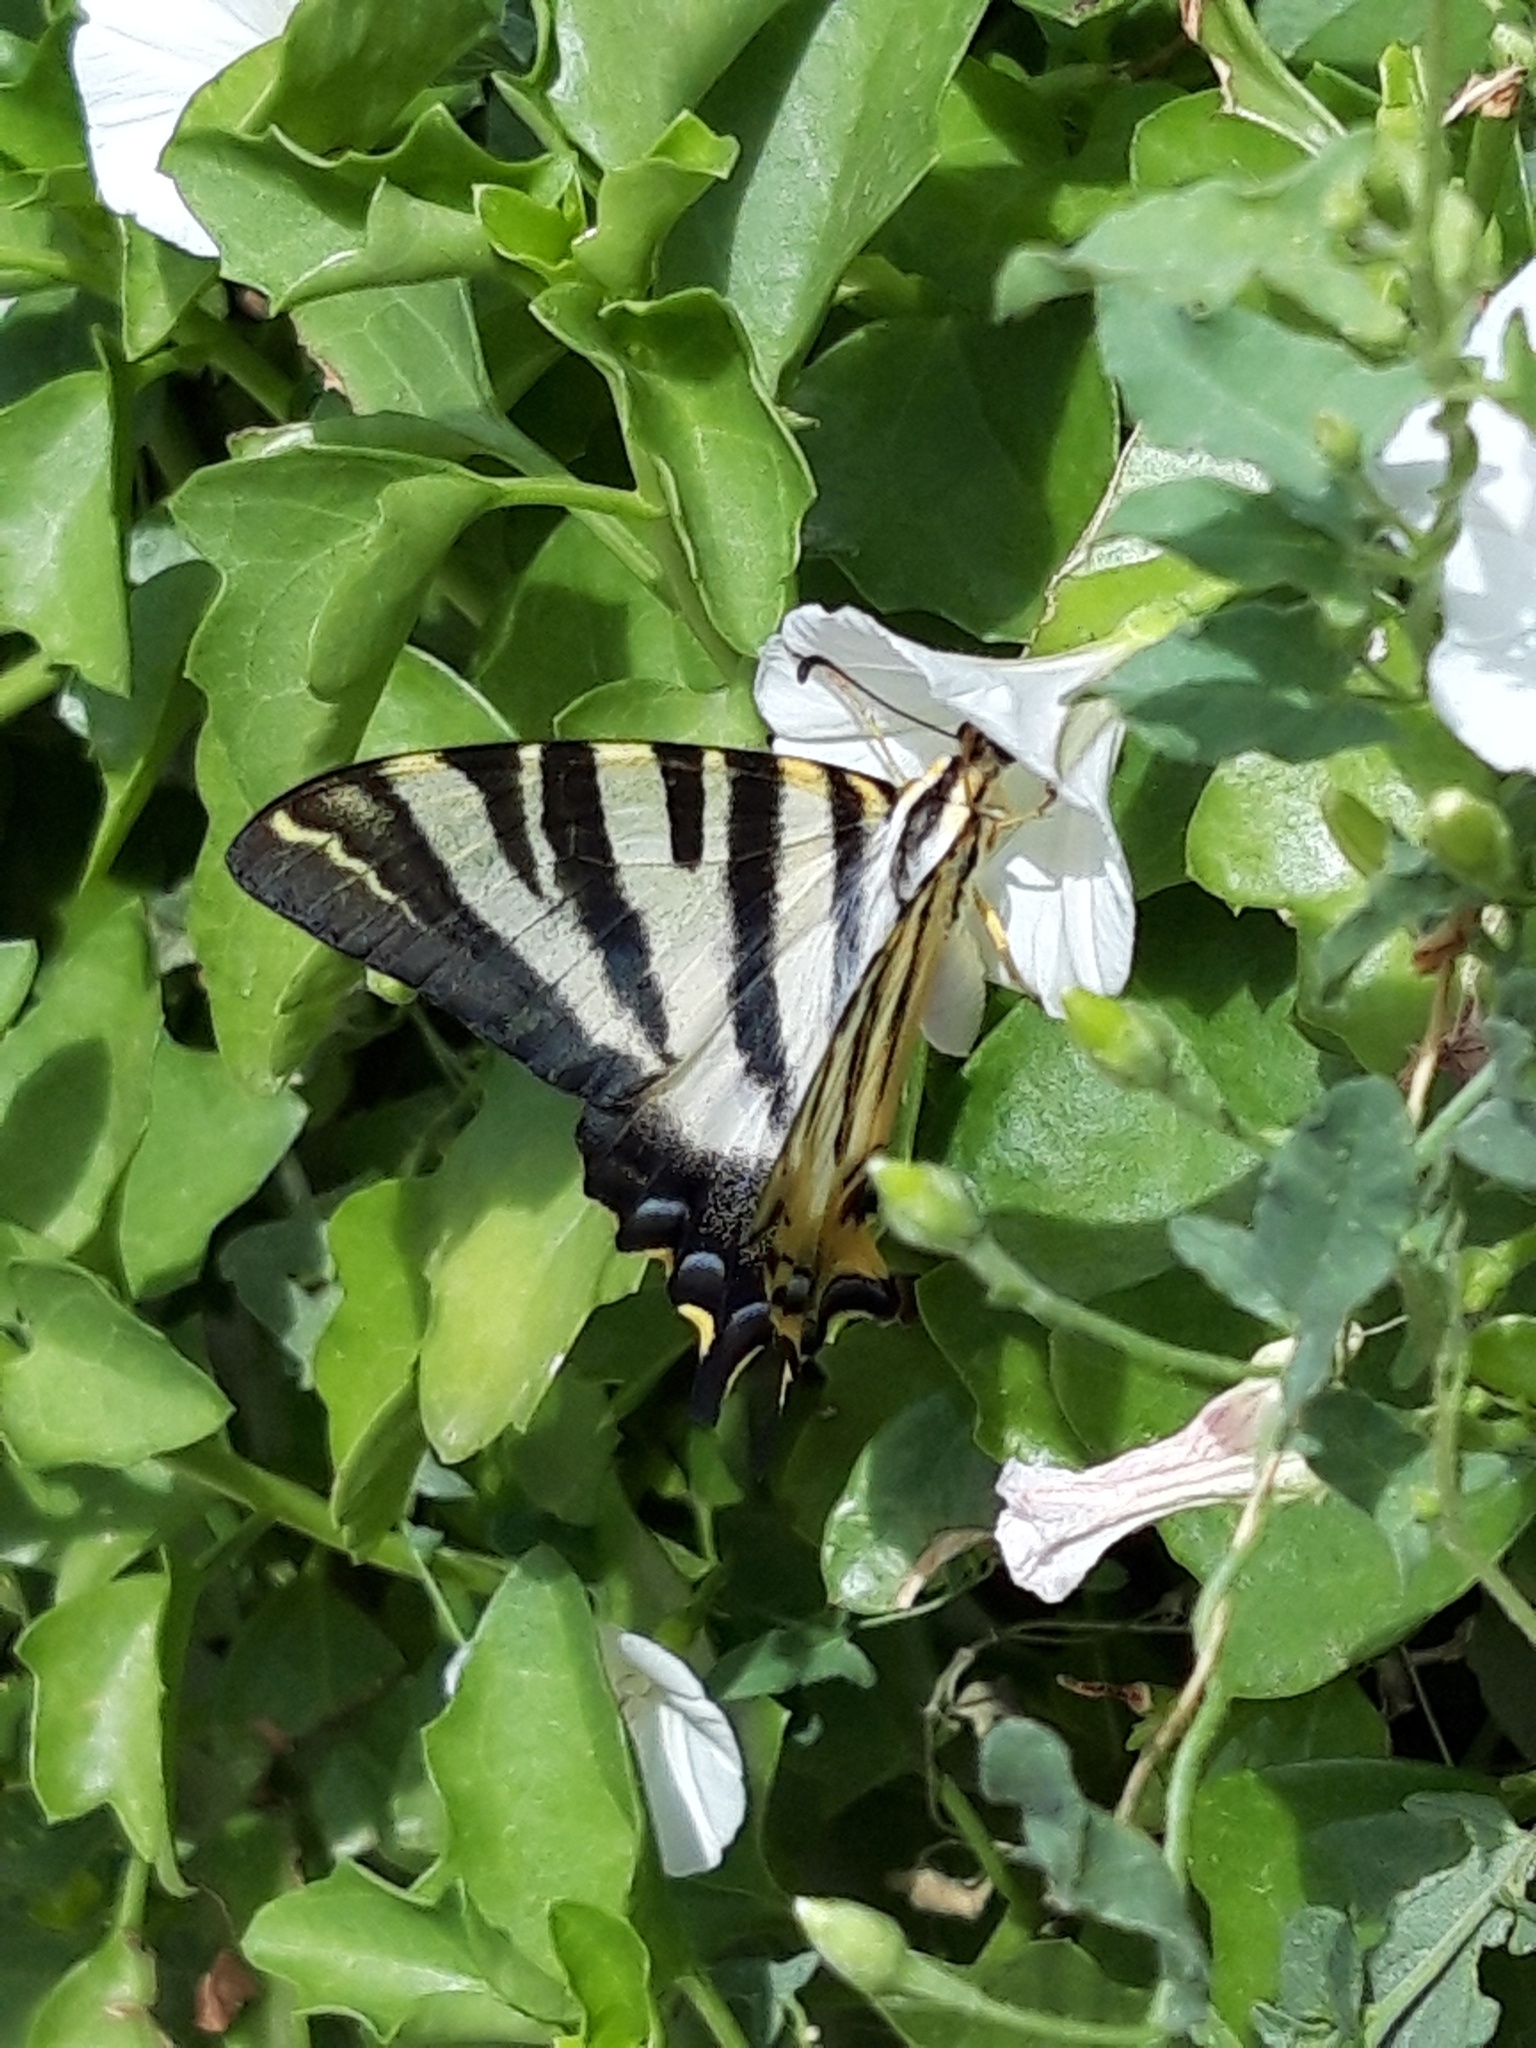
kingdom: Animalia
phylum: Arthropoda
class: Insecta
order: Lepidoptera
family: Papilionidae
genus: Iphiclides
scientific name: Iphiclides feisthamelii
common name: Iberian scarce swallowtail
